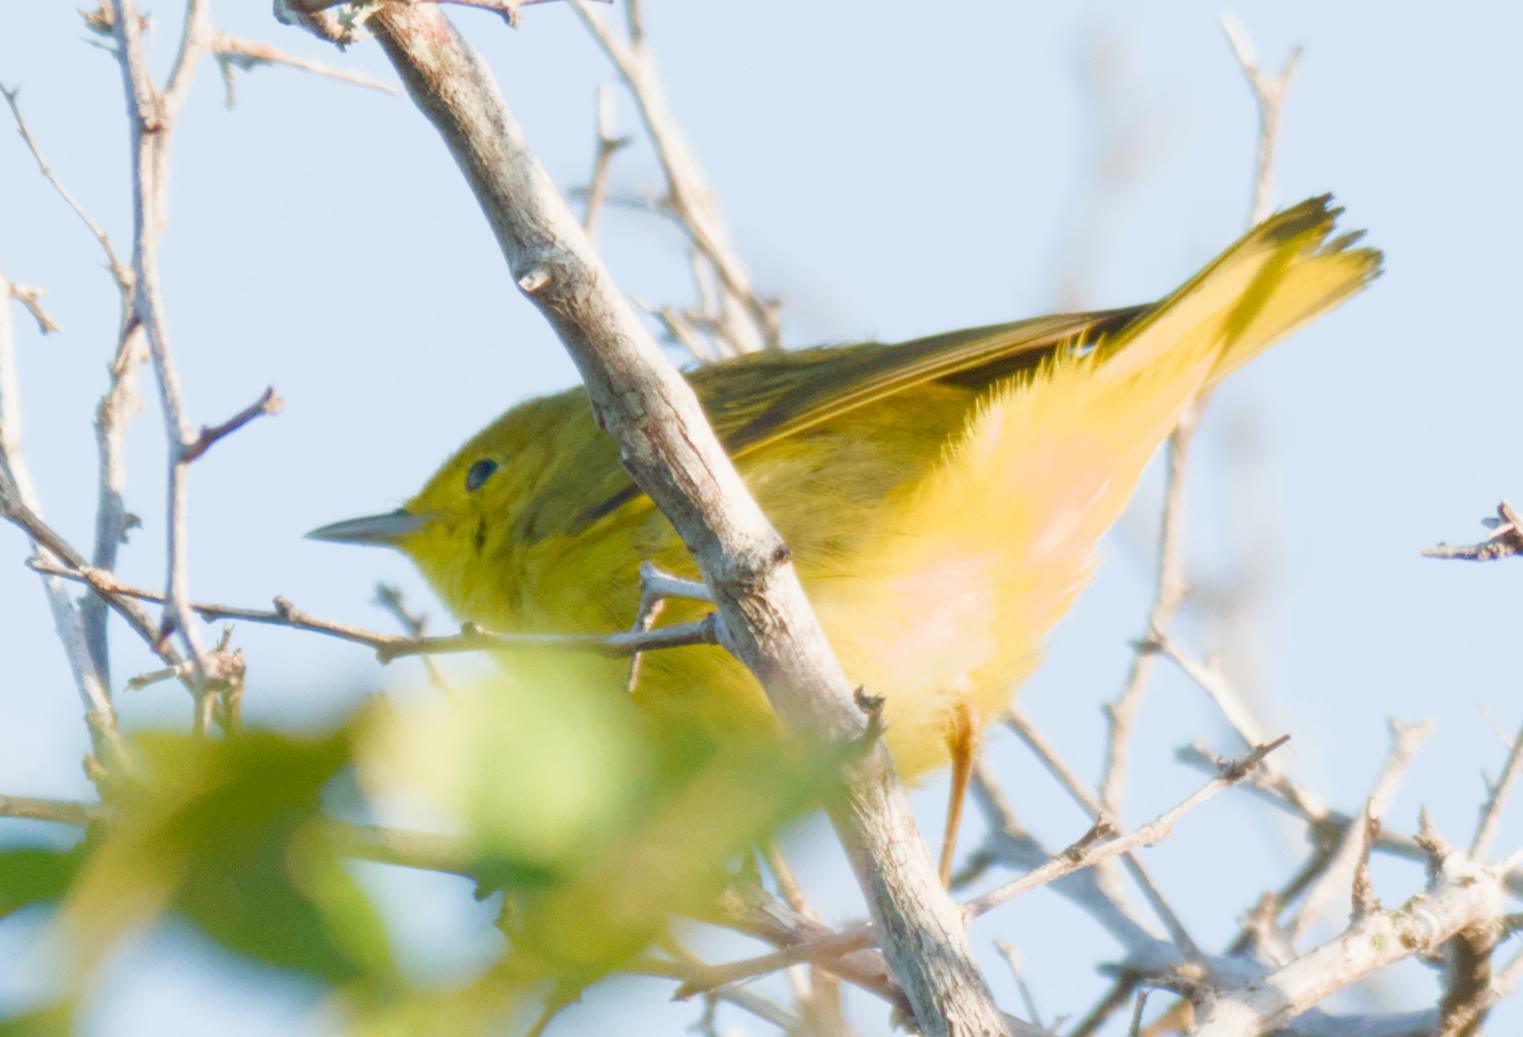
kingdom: Animalia
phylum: Chordata
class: Aves
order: Passeriformes
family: Parulidae
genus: Setophaga
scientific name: Setophaga petechia
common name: Yellow warbler
